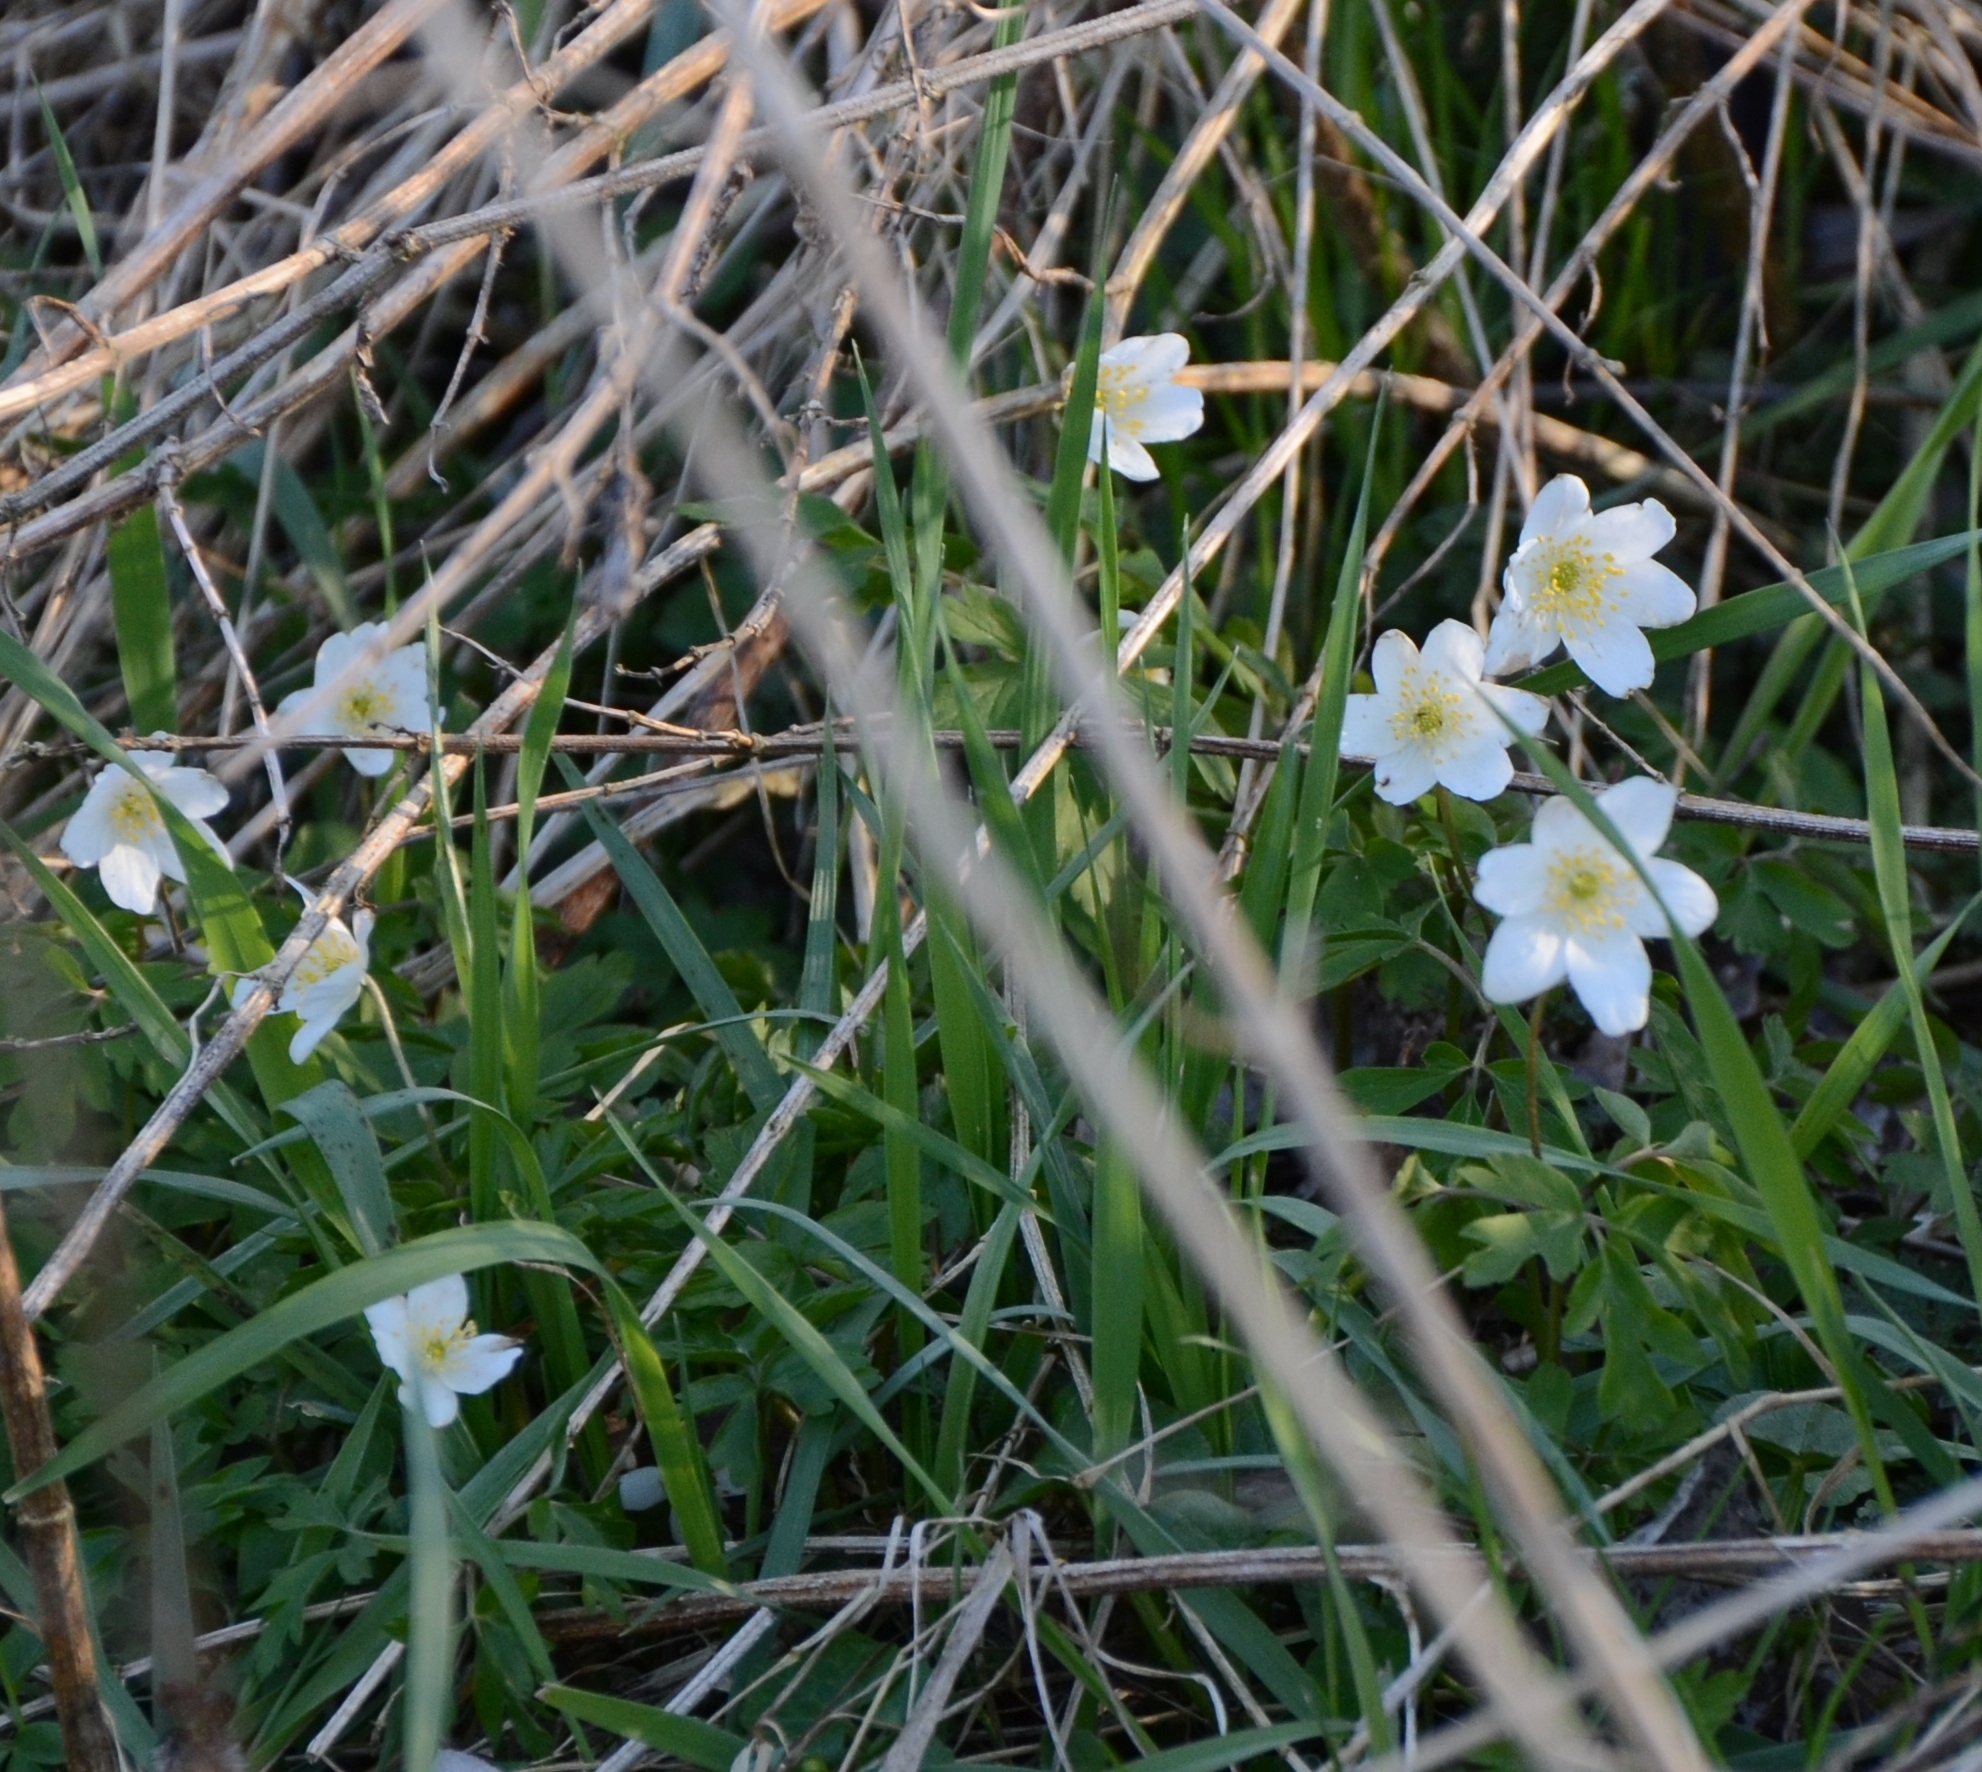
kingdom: Plantae
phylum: Tracheophyta
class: Magnoliopsida
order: Ranunculales
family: Ranunculaceae
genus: Anemone
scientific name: Anemone nemorosa
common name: Wood anemone
